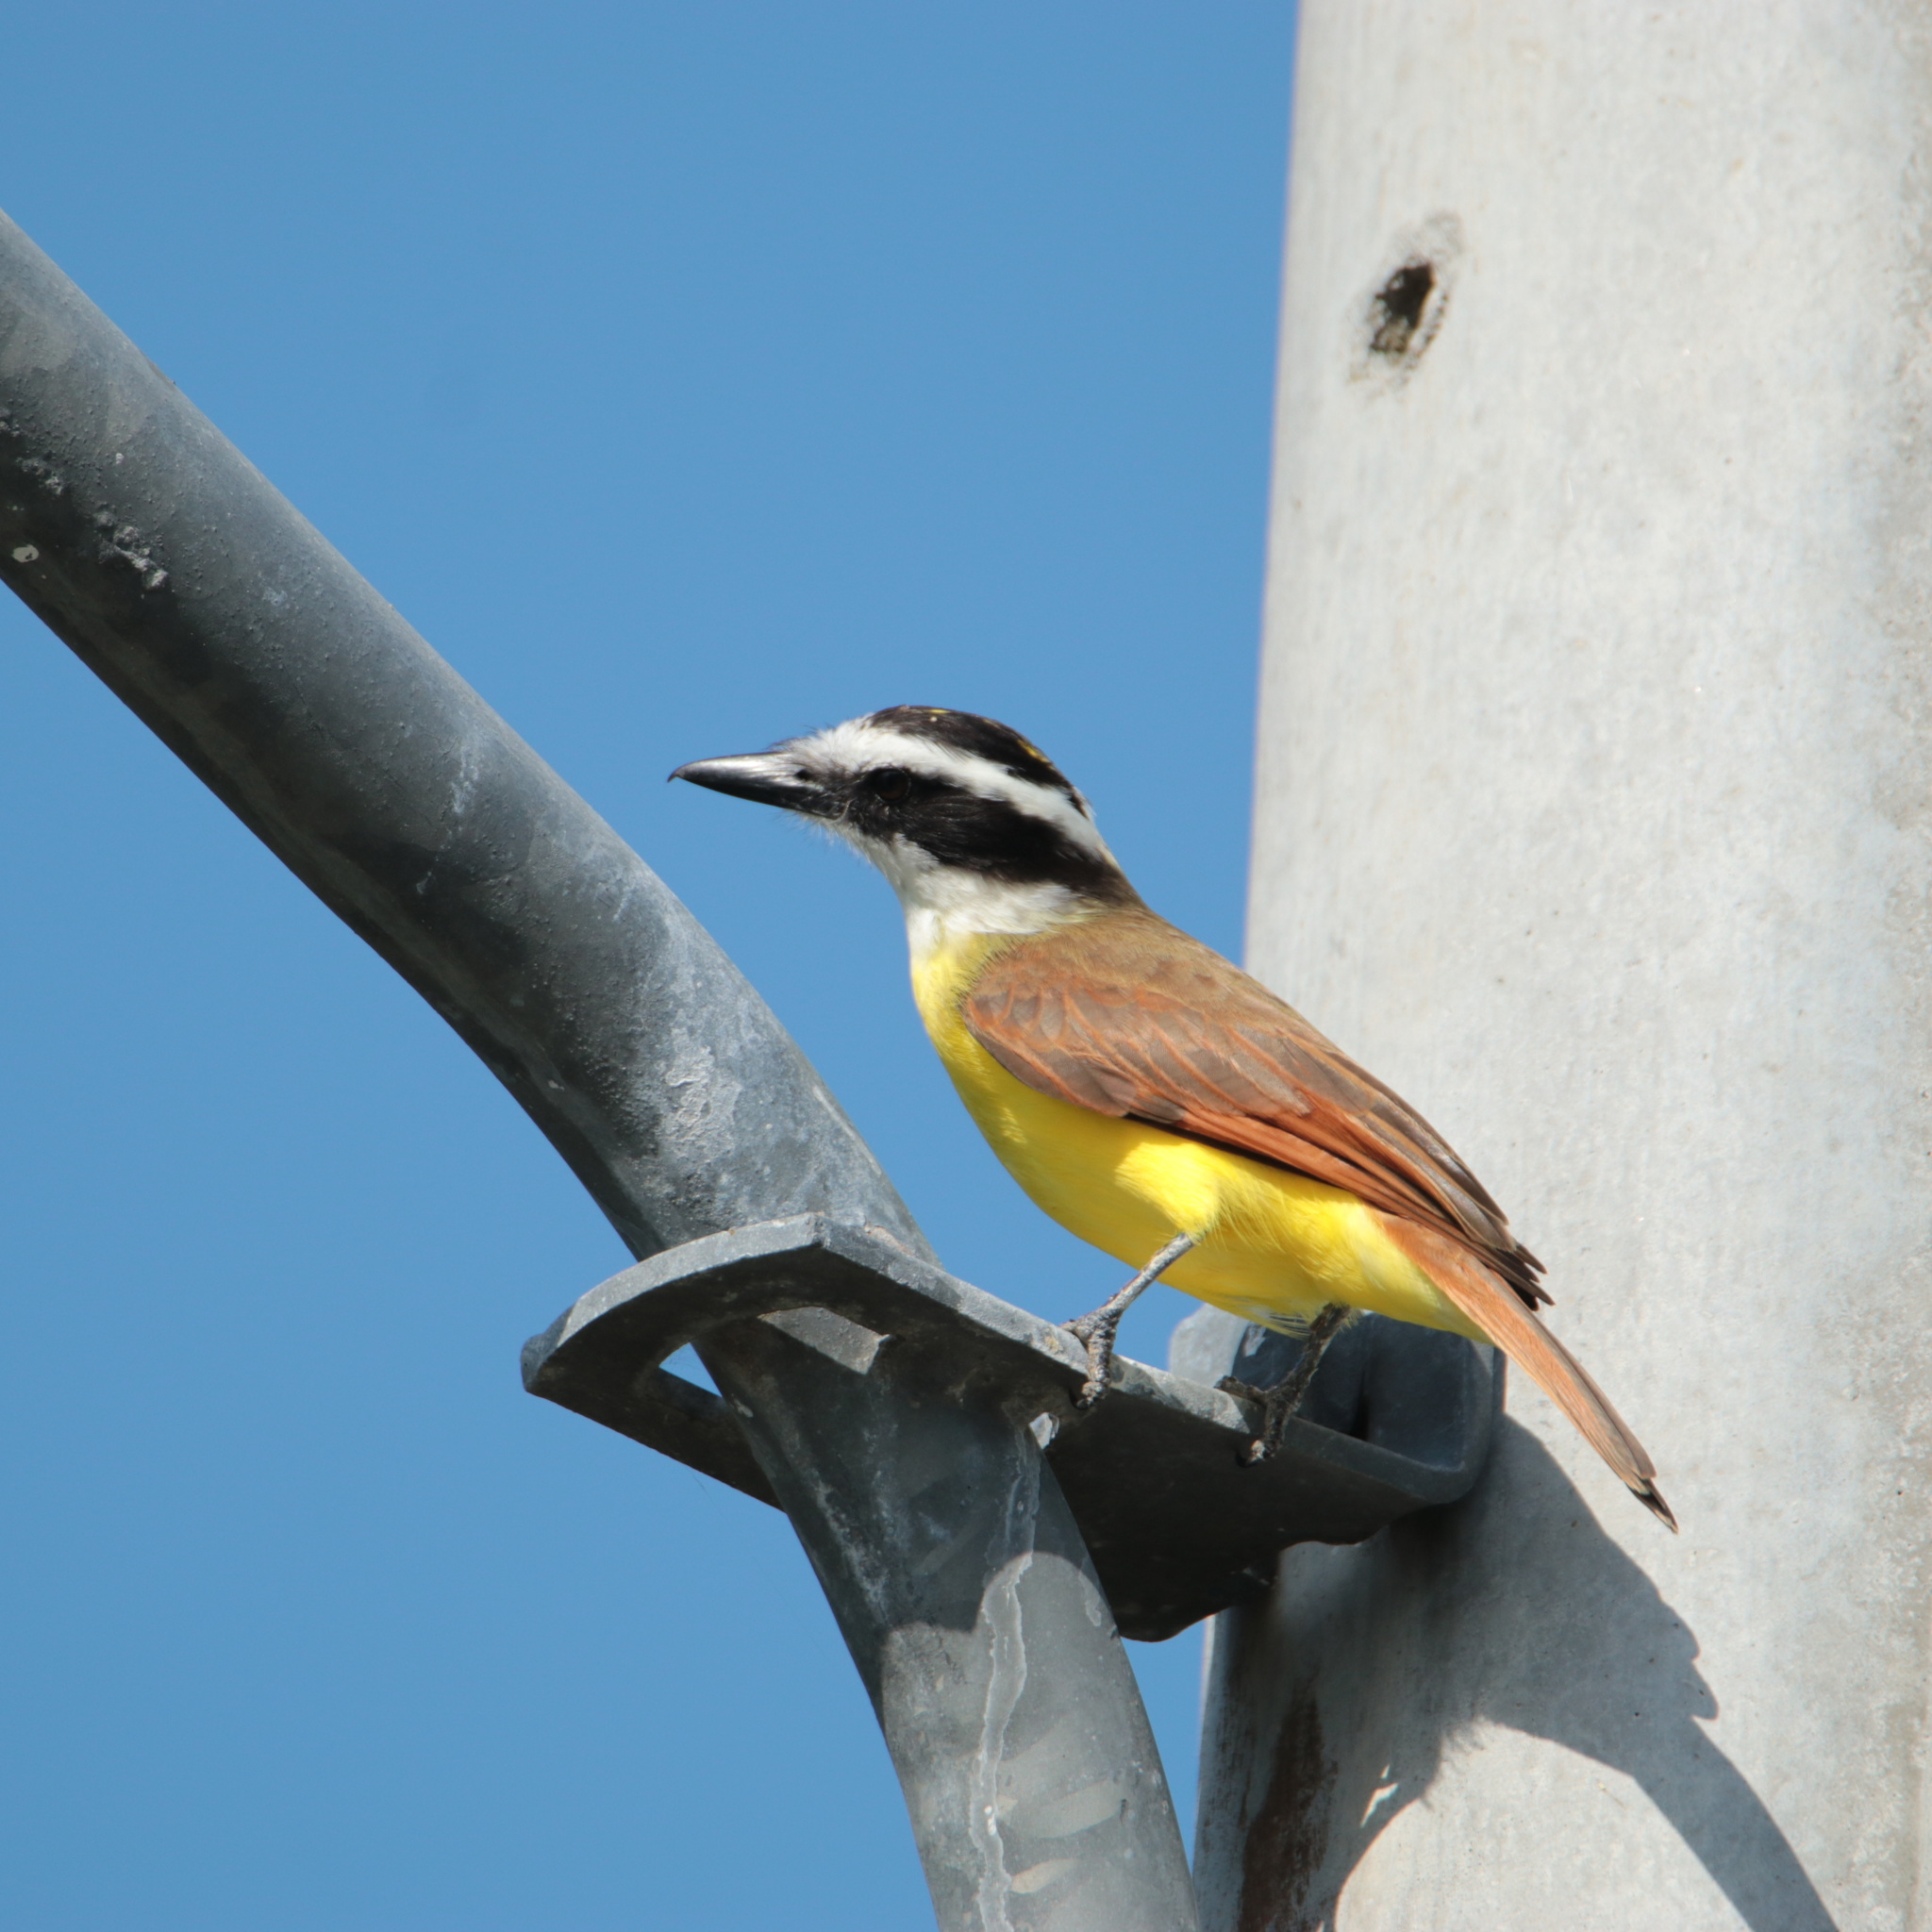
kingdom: Animalia
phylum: Chordata
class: Aves
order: Passeriformes
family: Tyrannidae
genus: Pitangus
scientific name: Pitangus sulphuratus
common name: Great kiskadee
